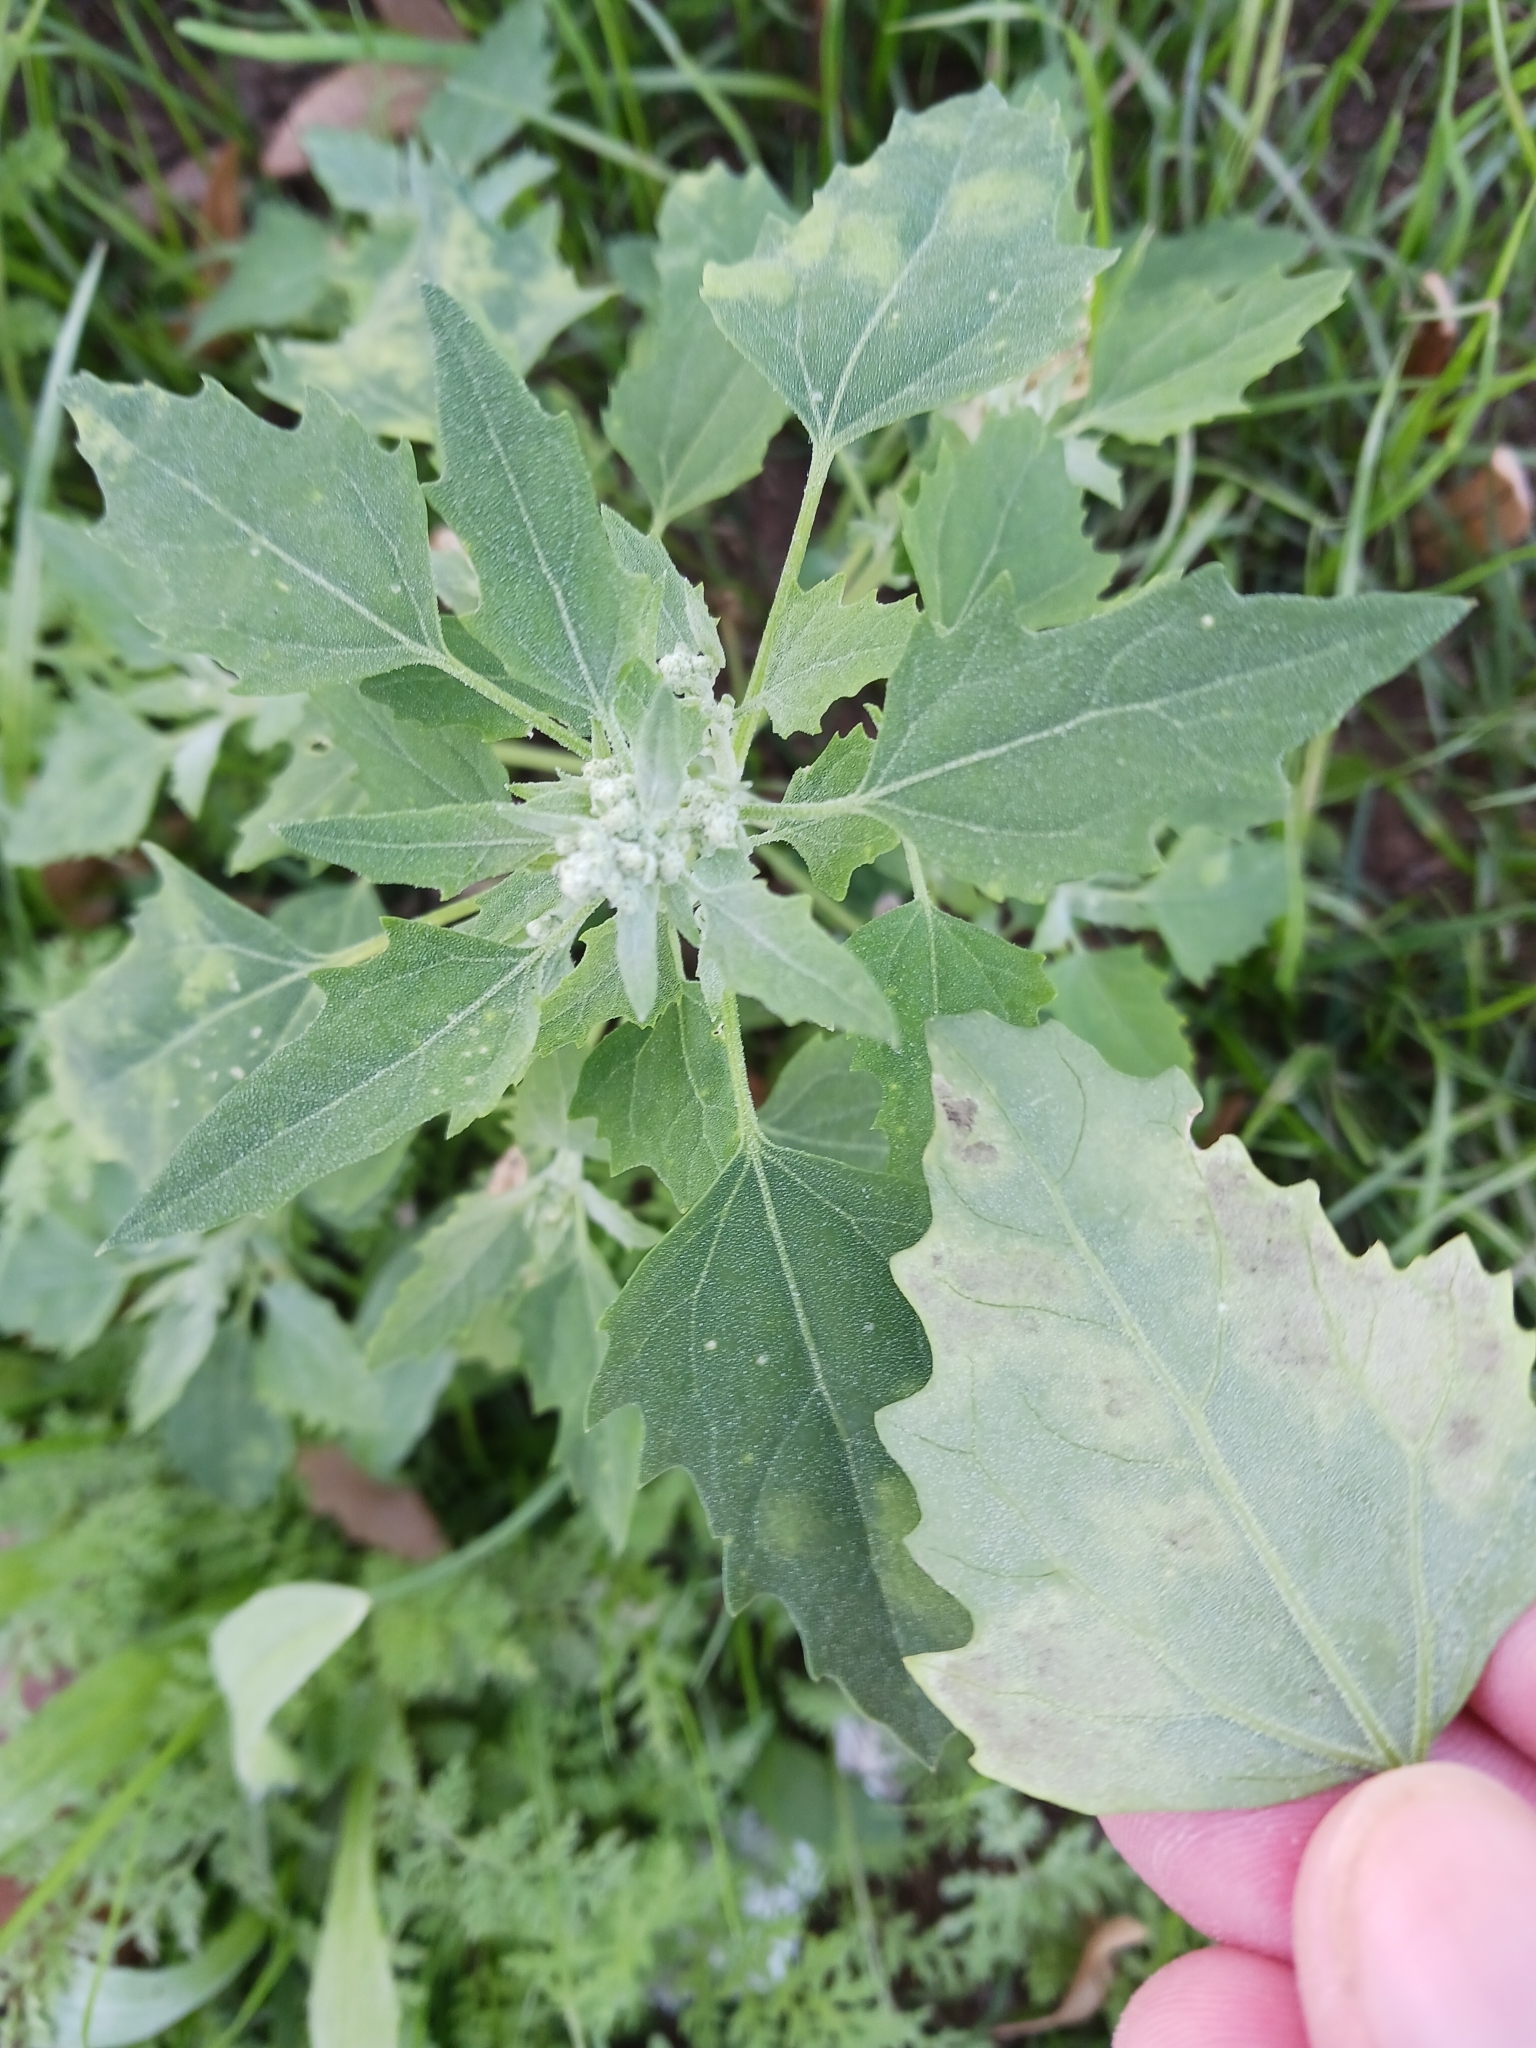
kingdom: Chromista
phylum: Oomycota
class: Peronosporea
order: Peronosporales
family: Peronosporaceae
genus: Peronospora
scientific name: Peronospora farinosa
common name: Beet downy mildew
